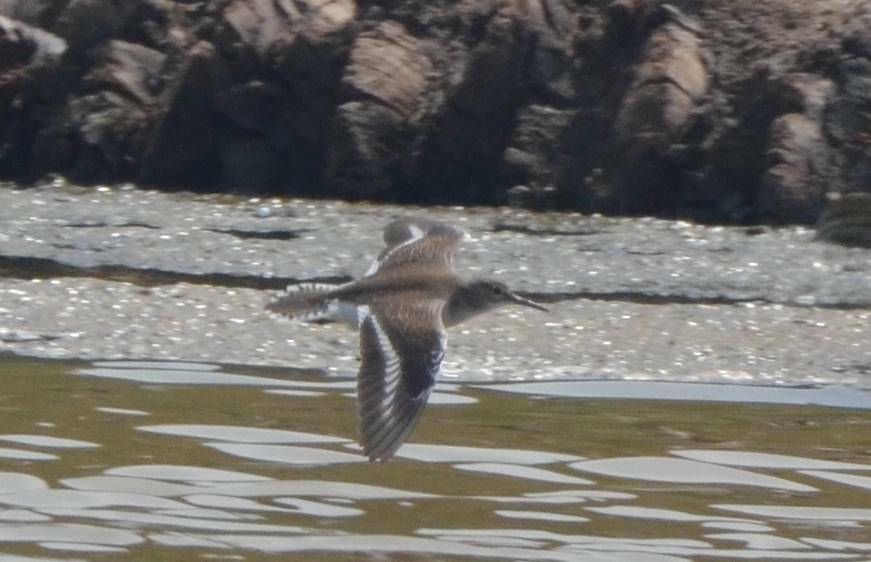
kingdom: Animalia
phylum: Chordata
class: Aves
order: Charadriiformes
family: Scolopacidae
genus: Tringa
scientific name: Tringa glareola
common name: Wood sandpiper
